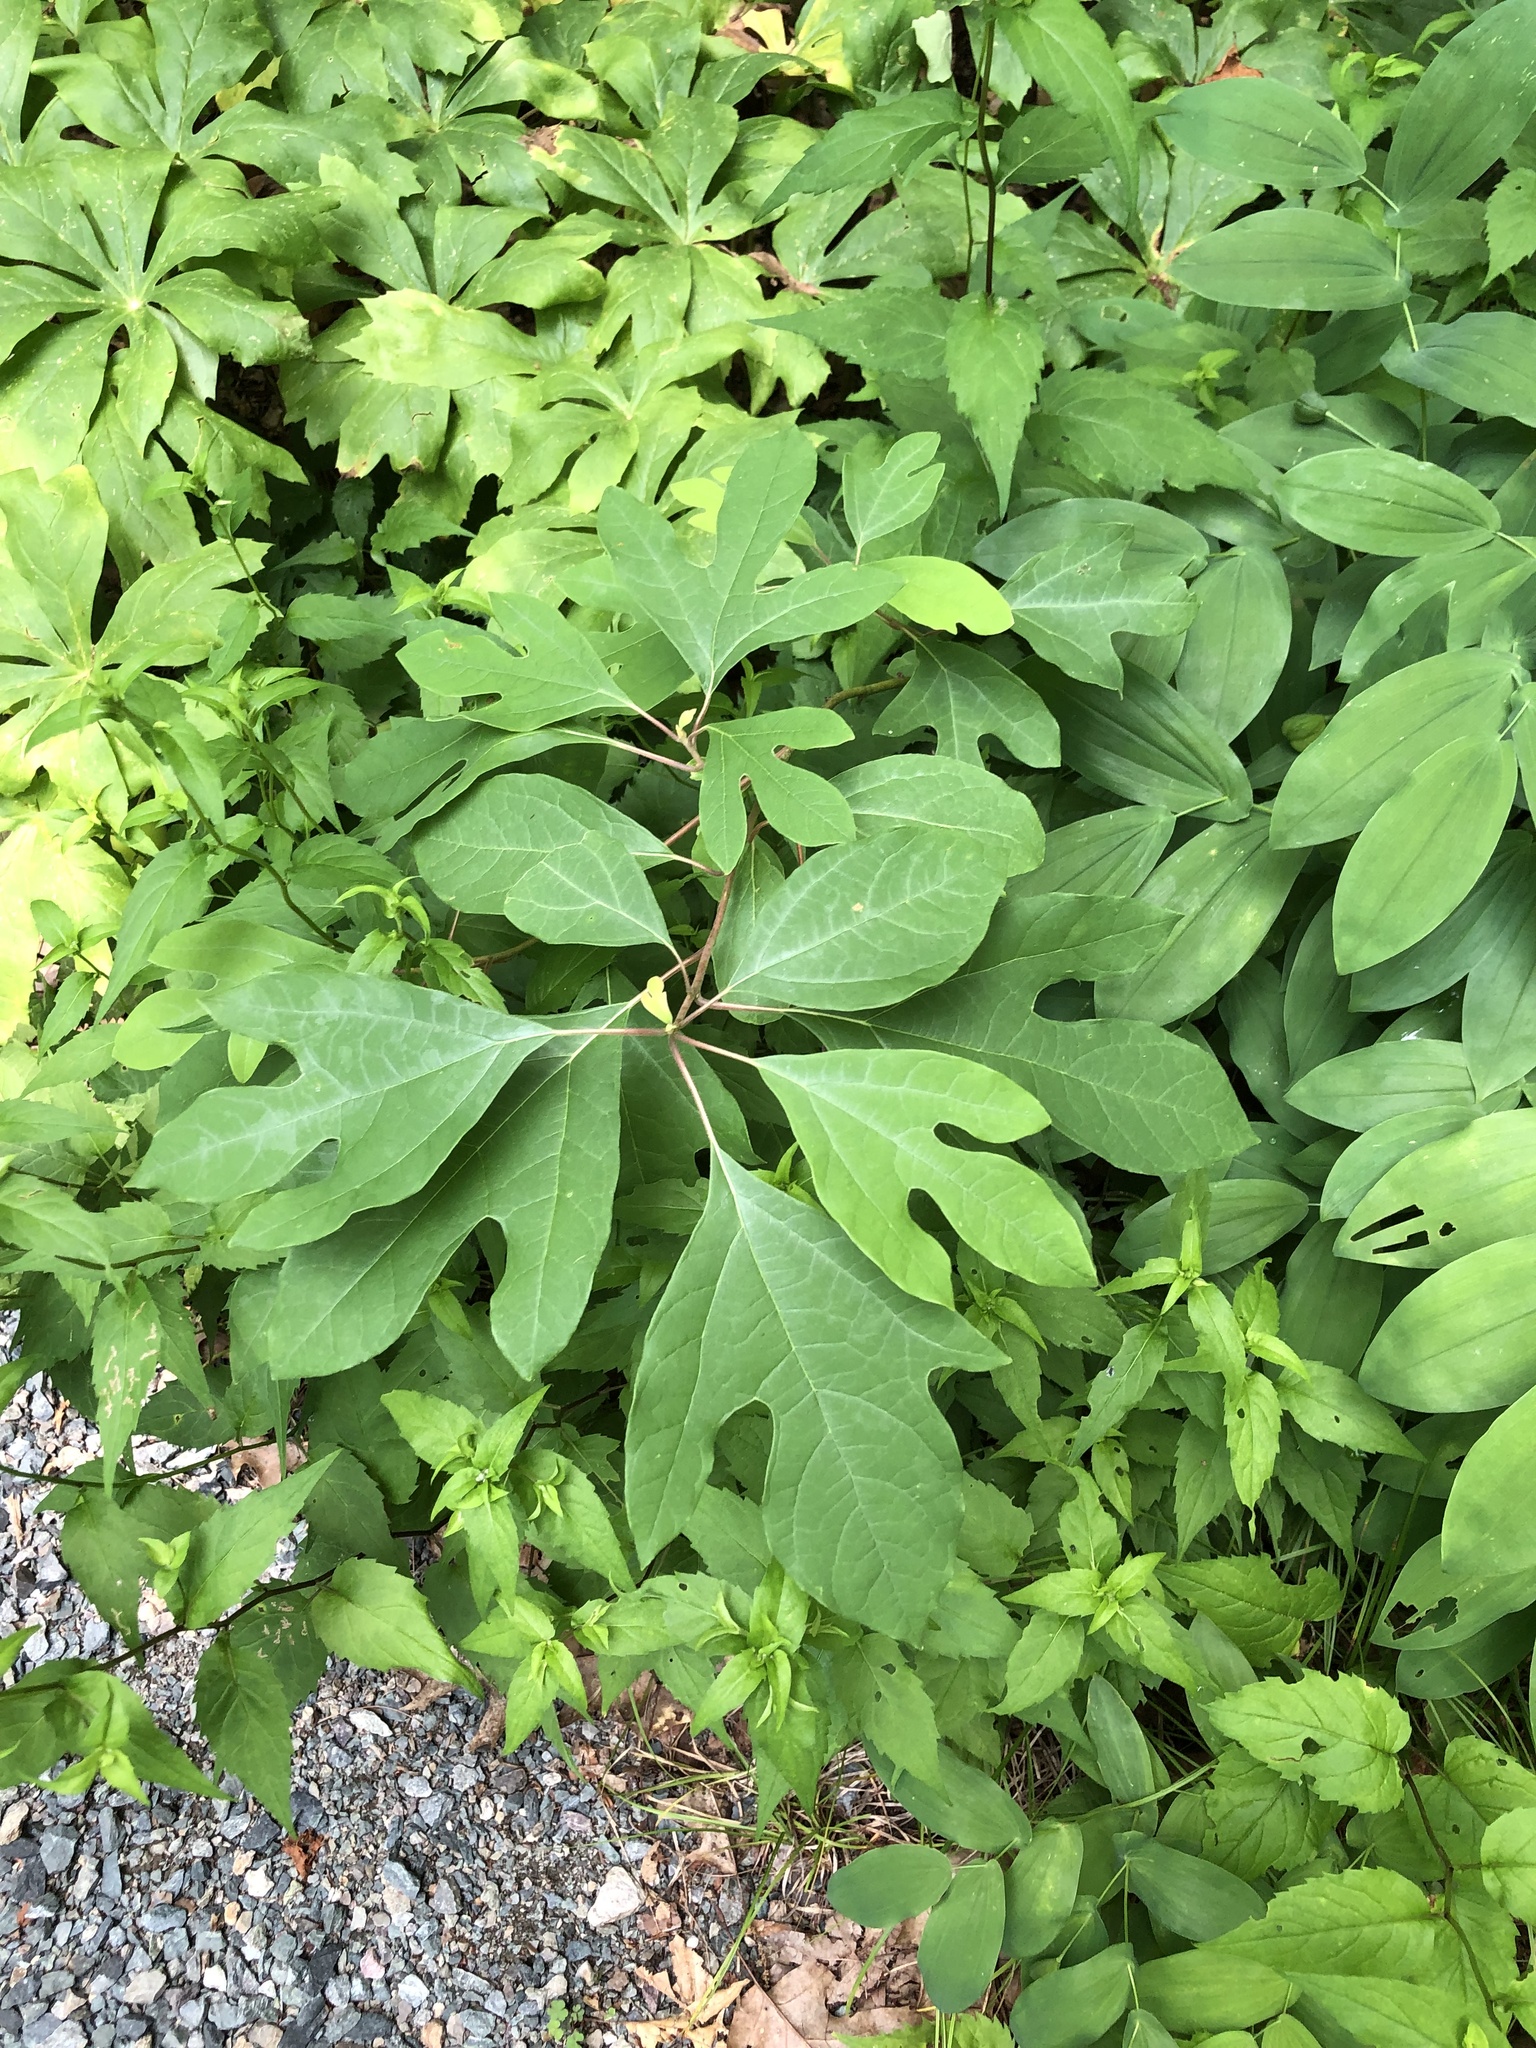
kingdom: Plantae
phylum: Tracheophyta
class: Magnoliopsida
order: Laurales
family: Lauraceae
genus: Sassafras
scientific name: Sassafras albidum
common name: Sassafras
